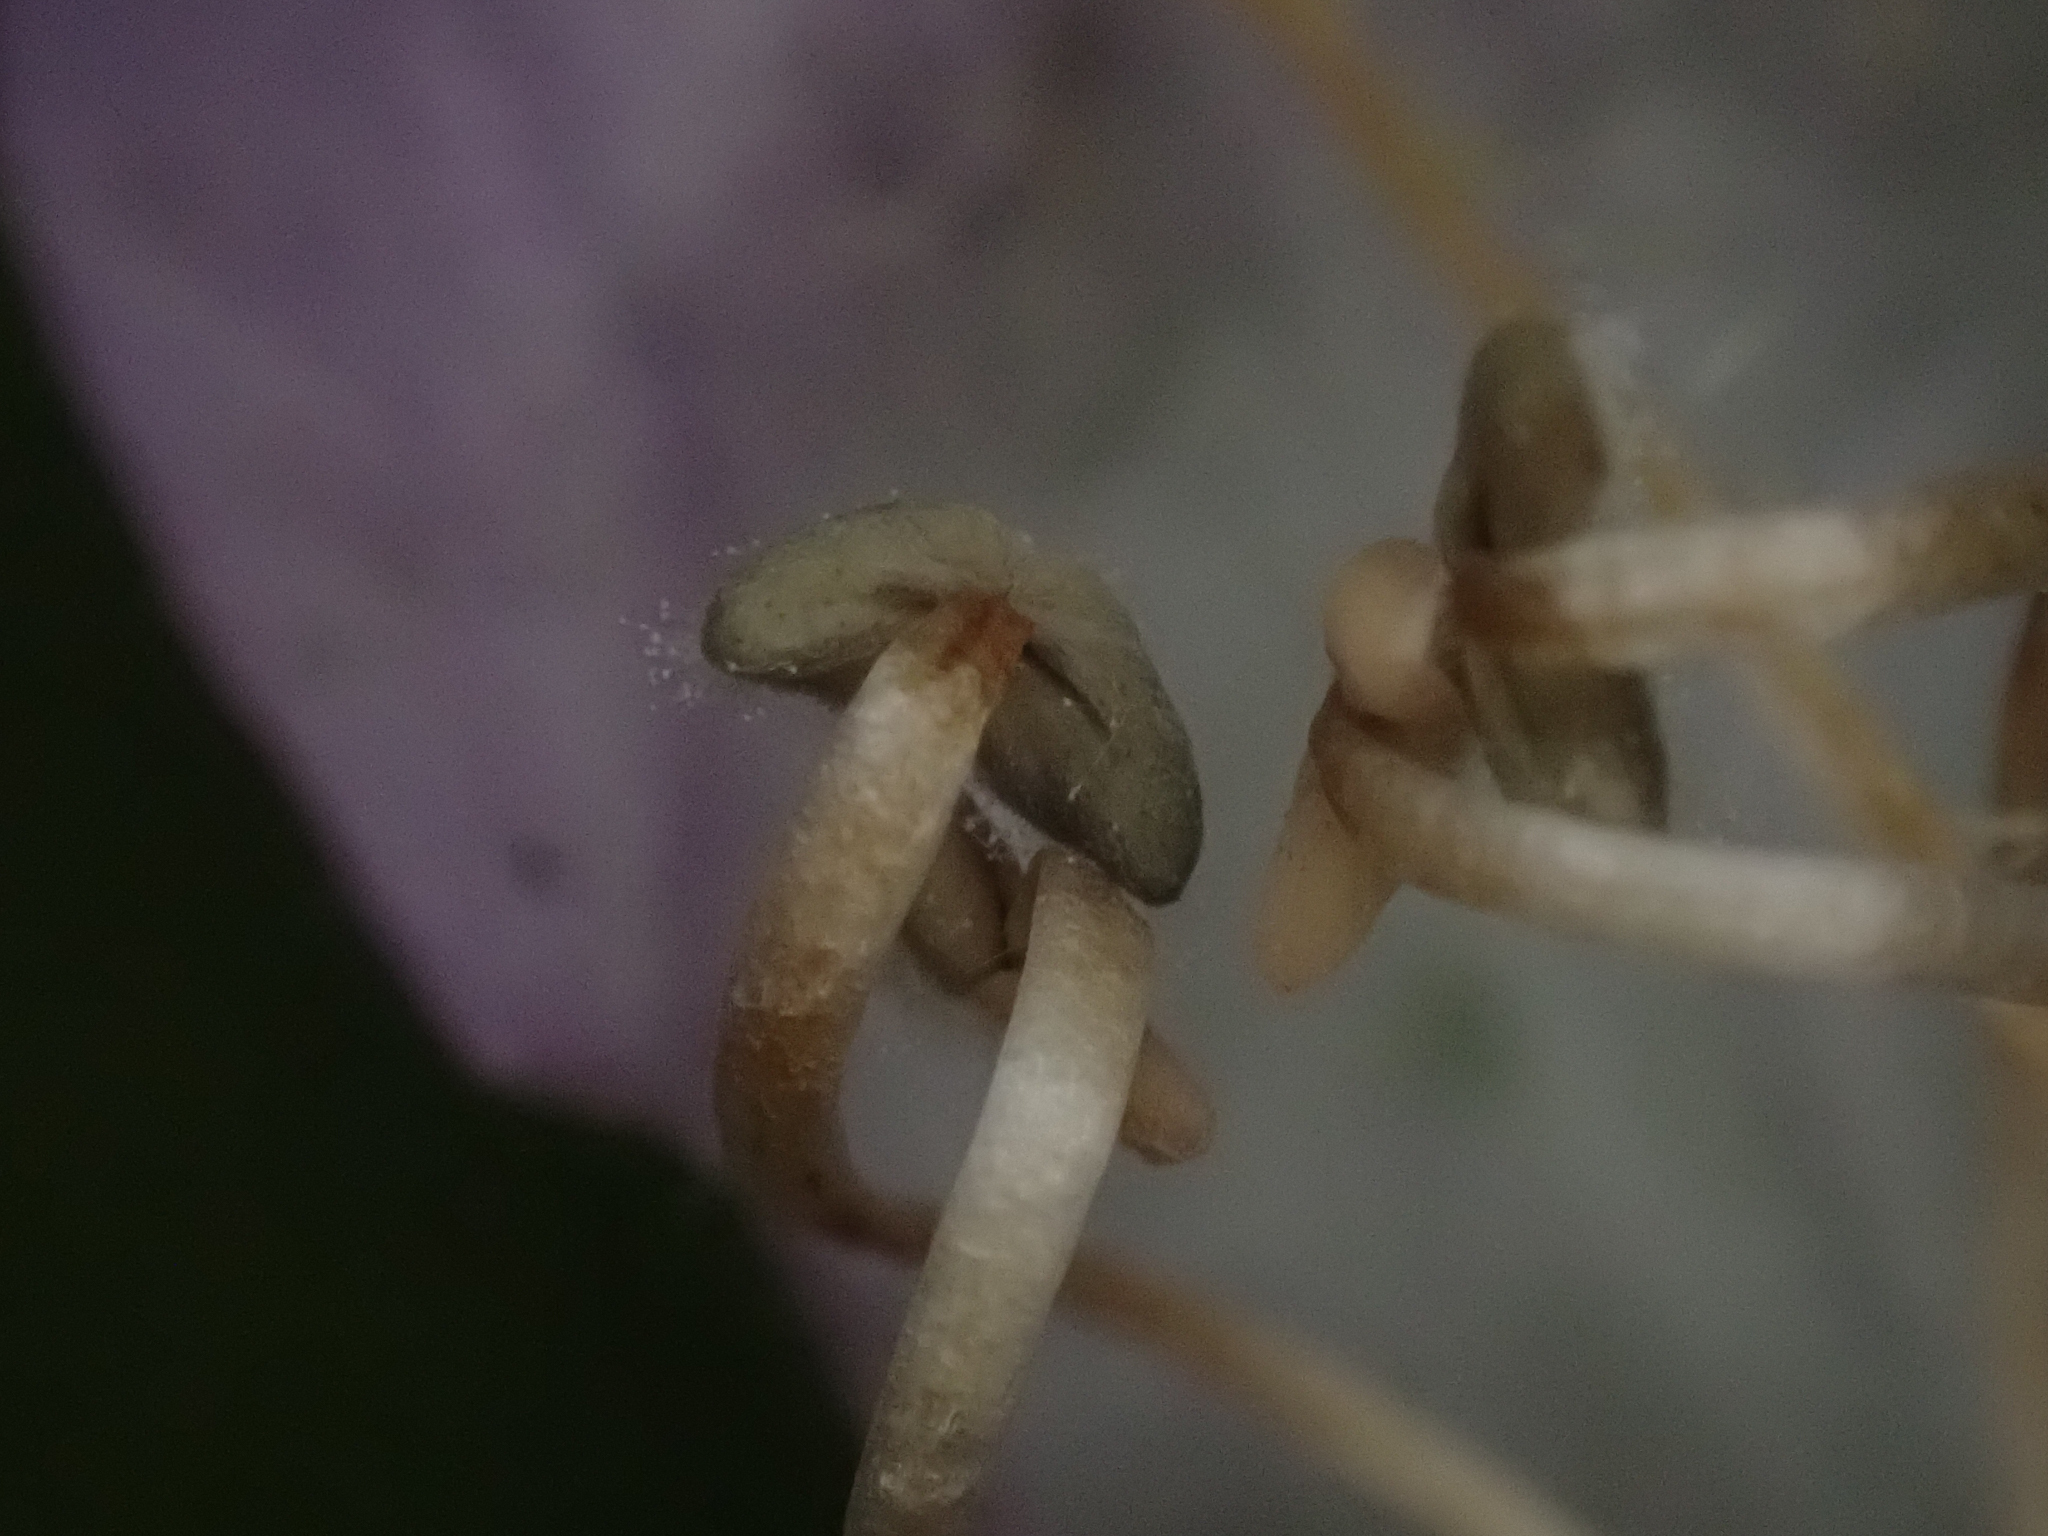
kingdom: Plantae
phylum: Tracheophyta
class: Magnoliopsida
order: Lamiales
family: Plantaginaceae
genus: Penstemon
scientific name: Penstemon rattanii
